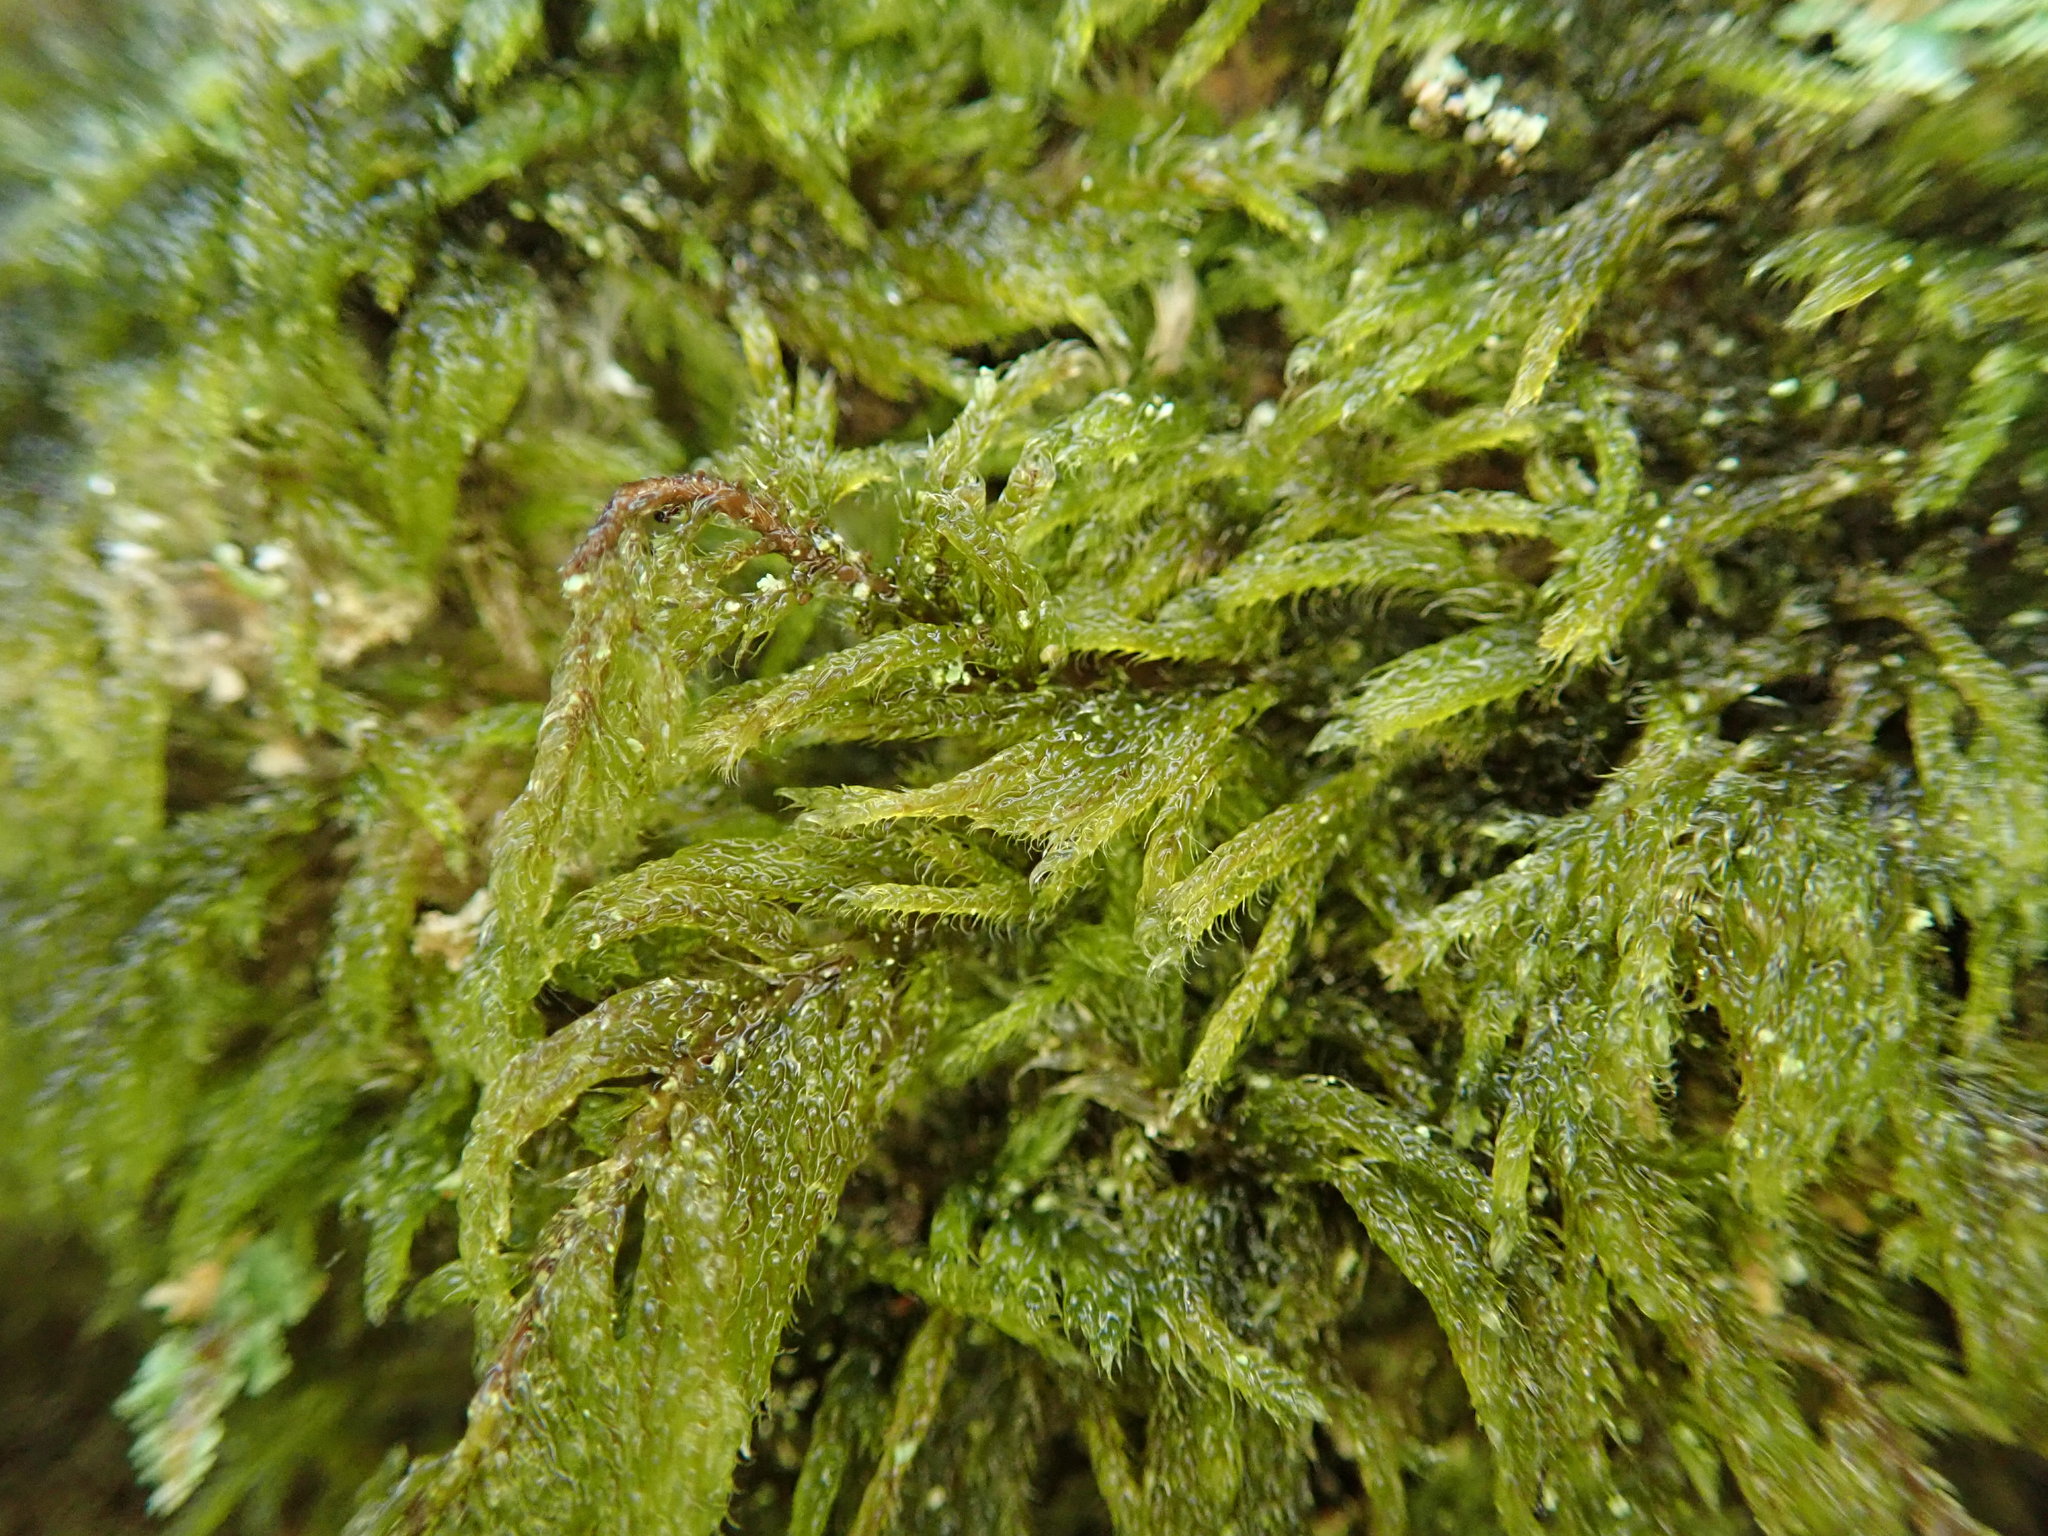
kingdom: Plantae
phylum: Bryophyta
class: Bryopsida
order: Hypnales
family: Pylaisiadelphaceae
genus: Trochophyllohypnum
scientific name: Trochophyllohypnum circinale
